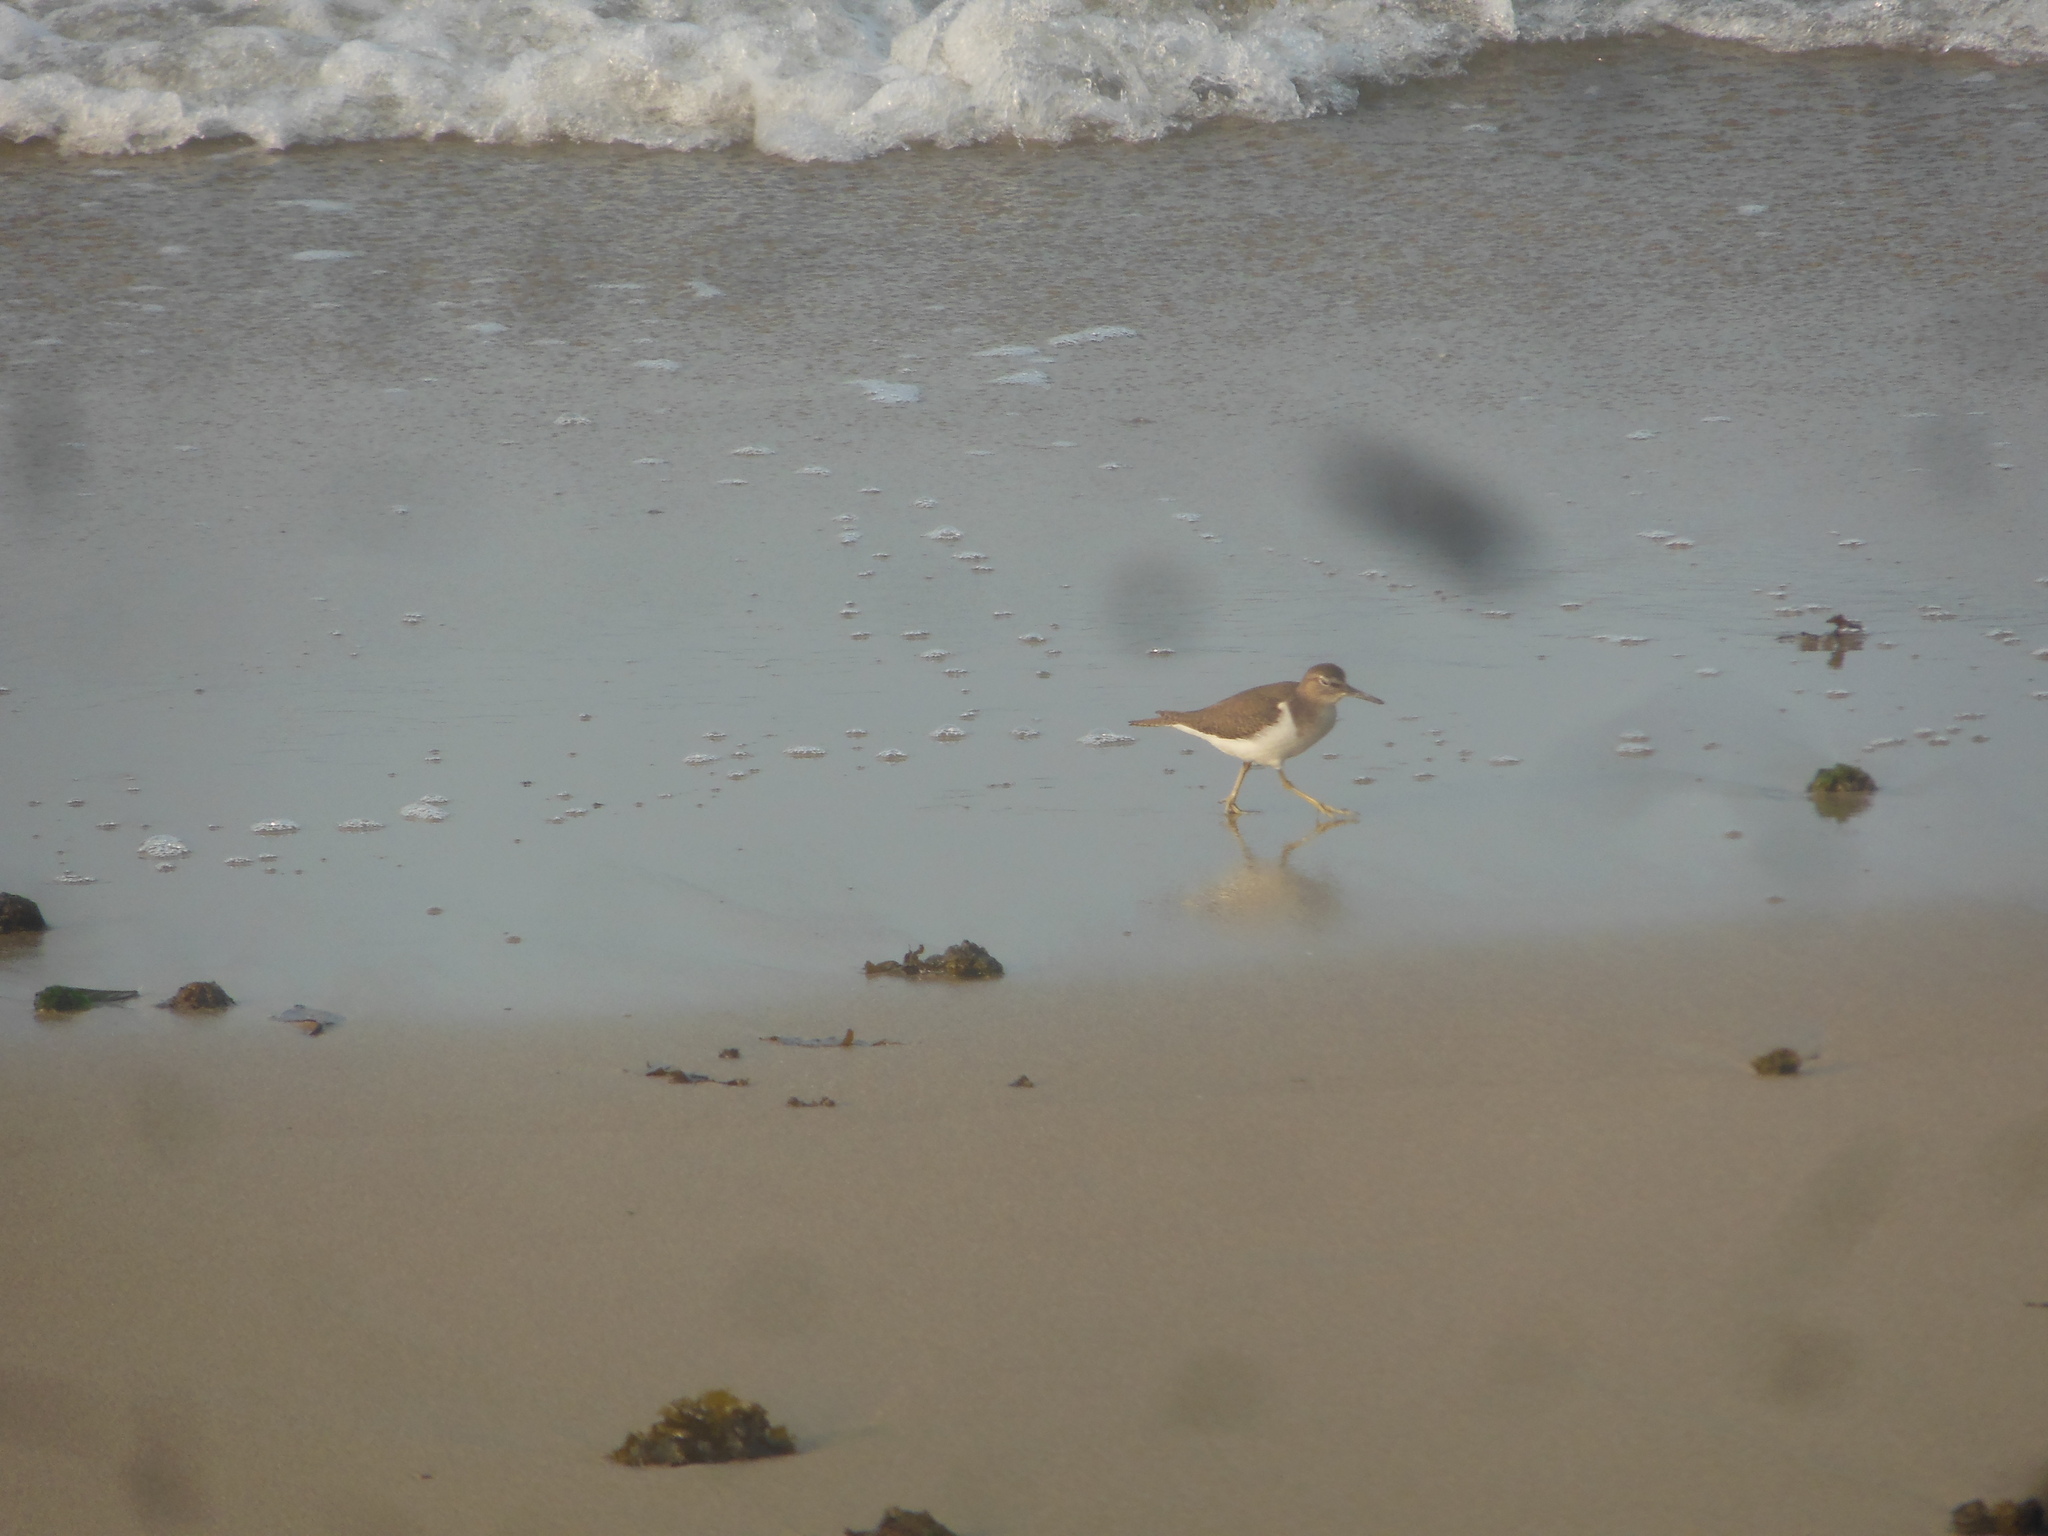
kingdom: Animalia
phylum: Chordata
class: Aves
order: Charadriiformes
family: Scolopacidae
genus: Actitis
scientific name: Actitis hypoleucos
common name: Common sandpiper
